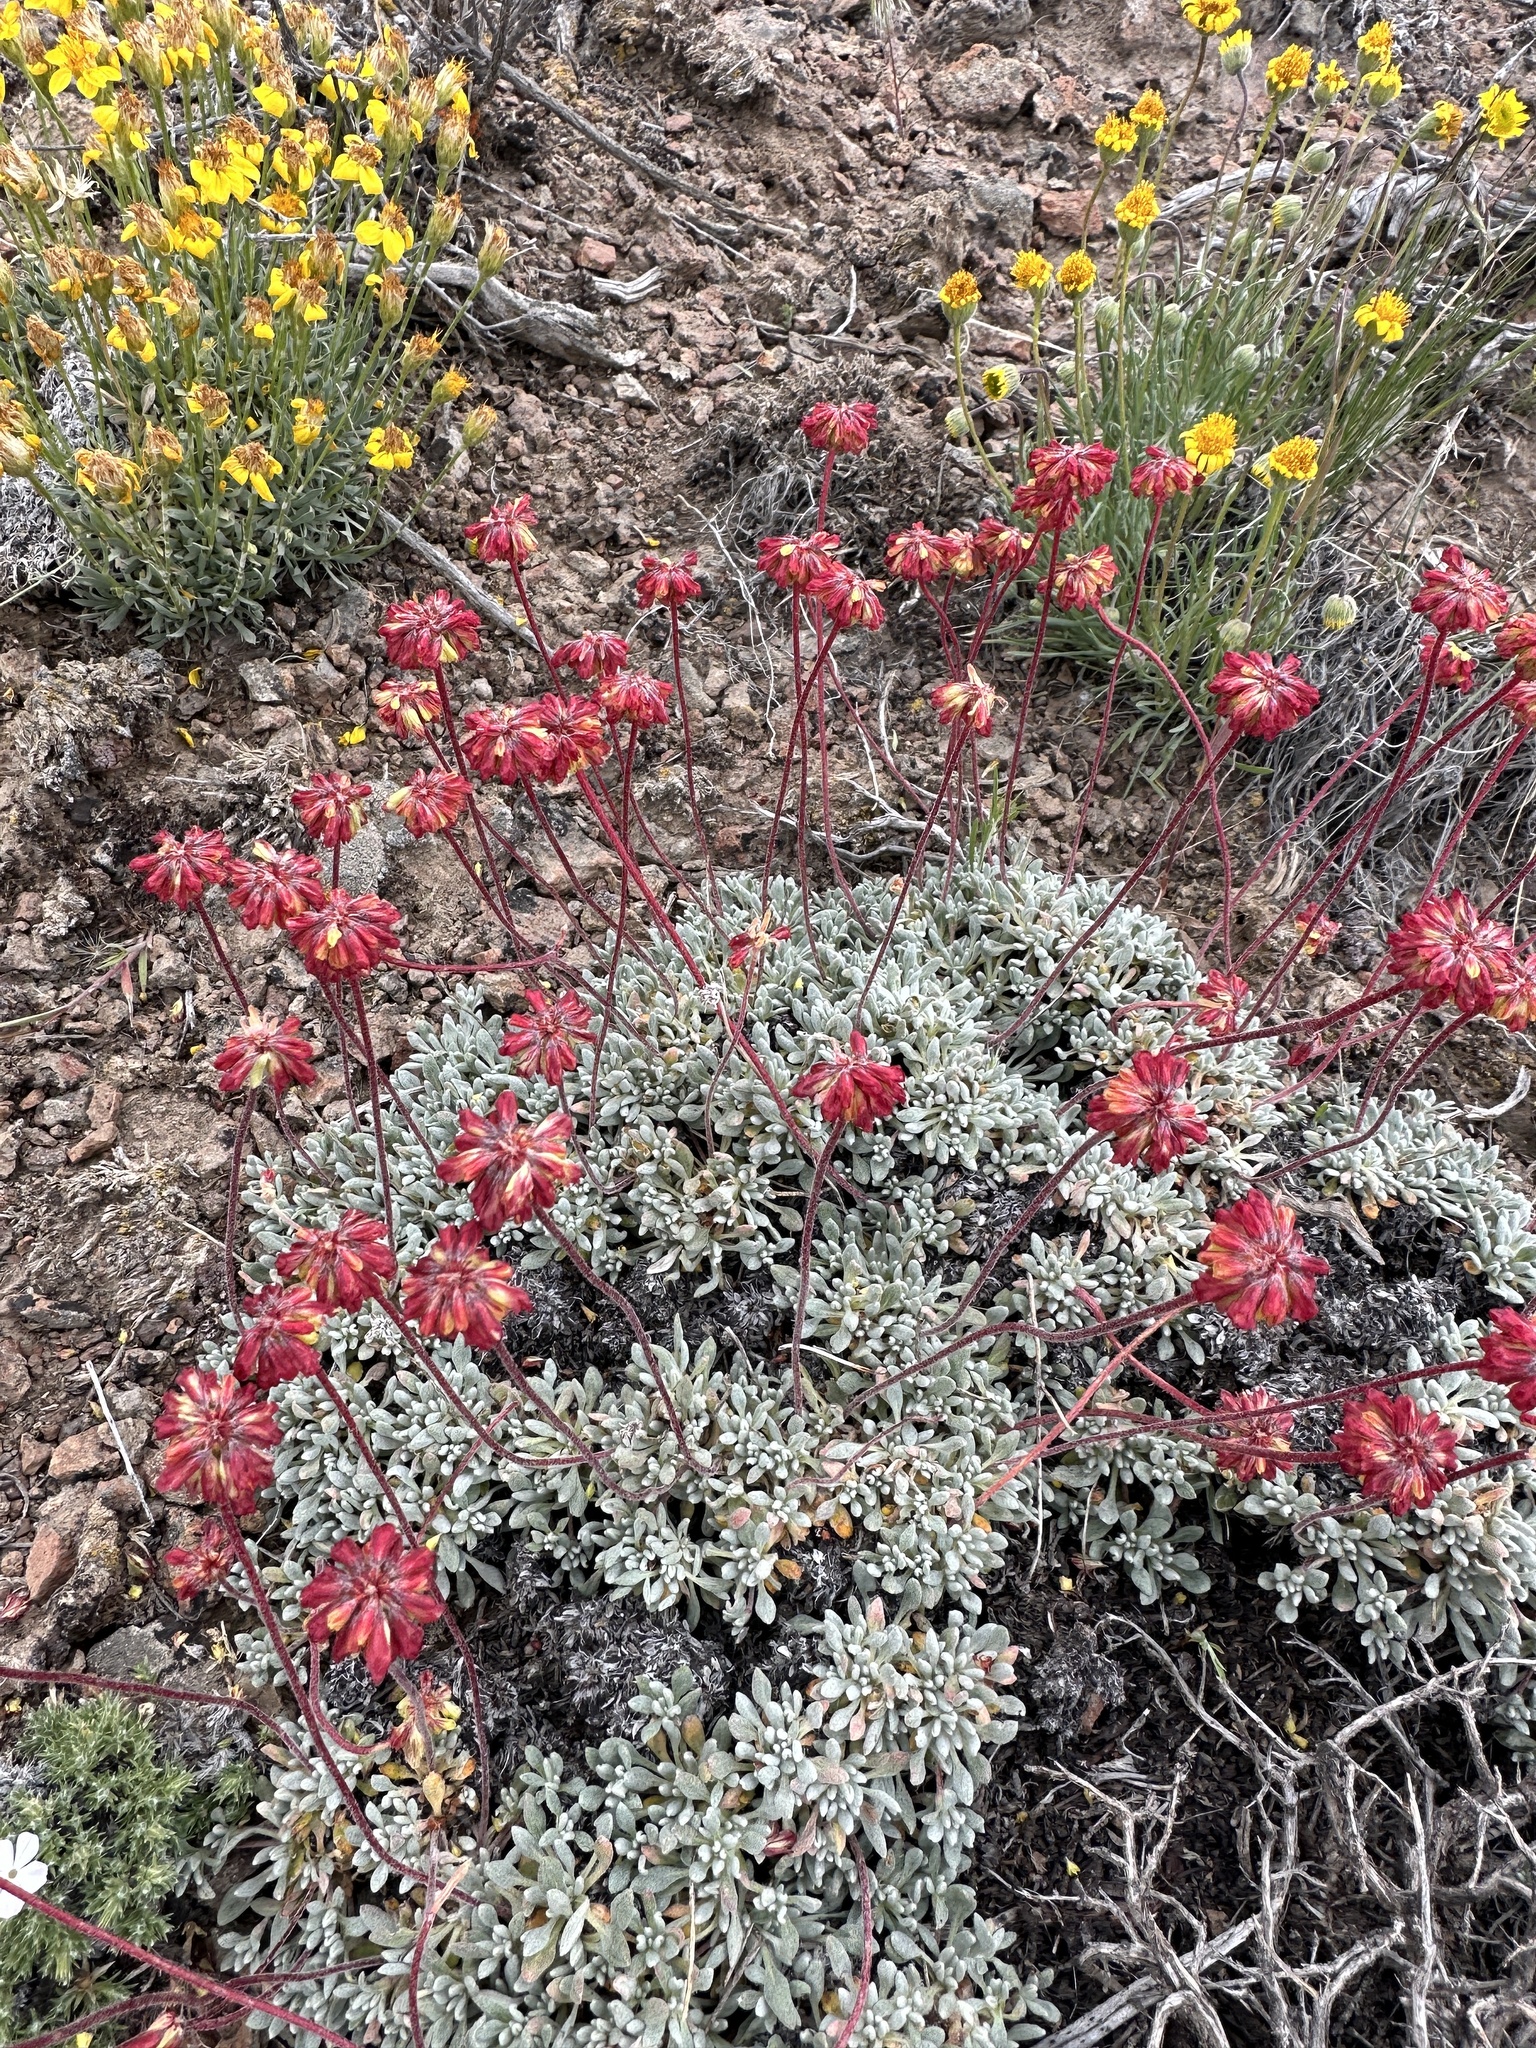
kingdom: Plantae
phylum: Tracheophyta
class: Magnoliopsida
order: Caryophyllales
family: Polygonaceae
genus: Eriogonum
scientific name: Eriogonum caespitosum
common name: Matted wild buckwheat
